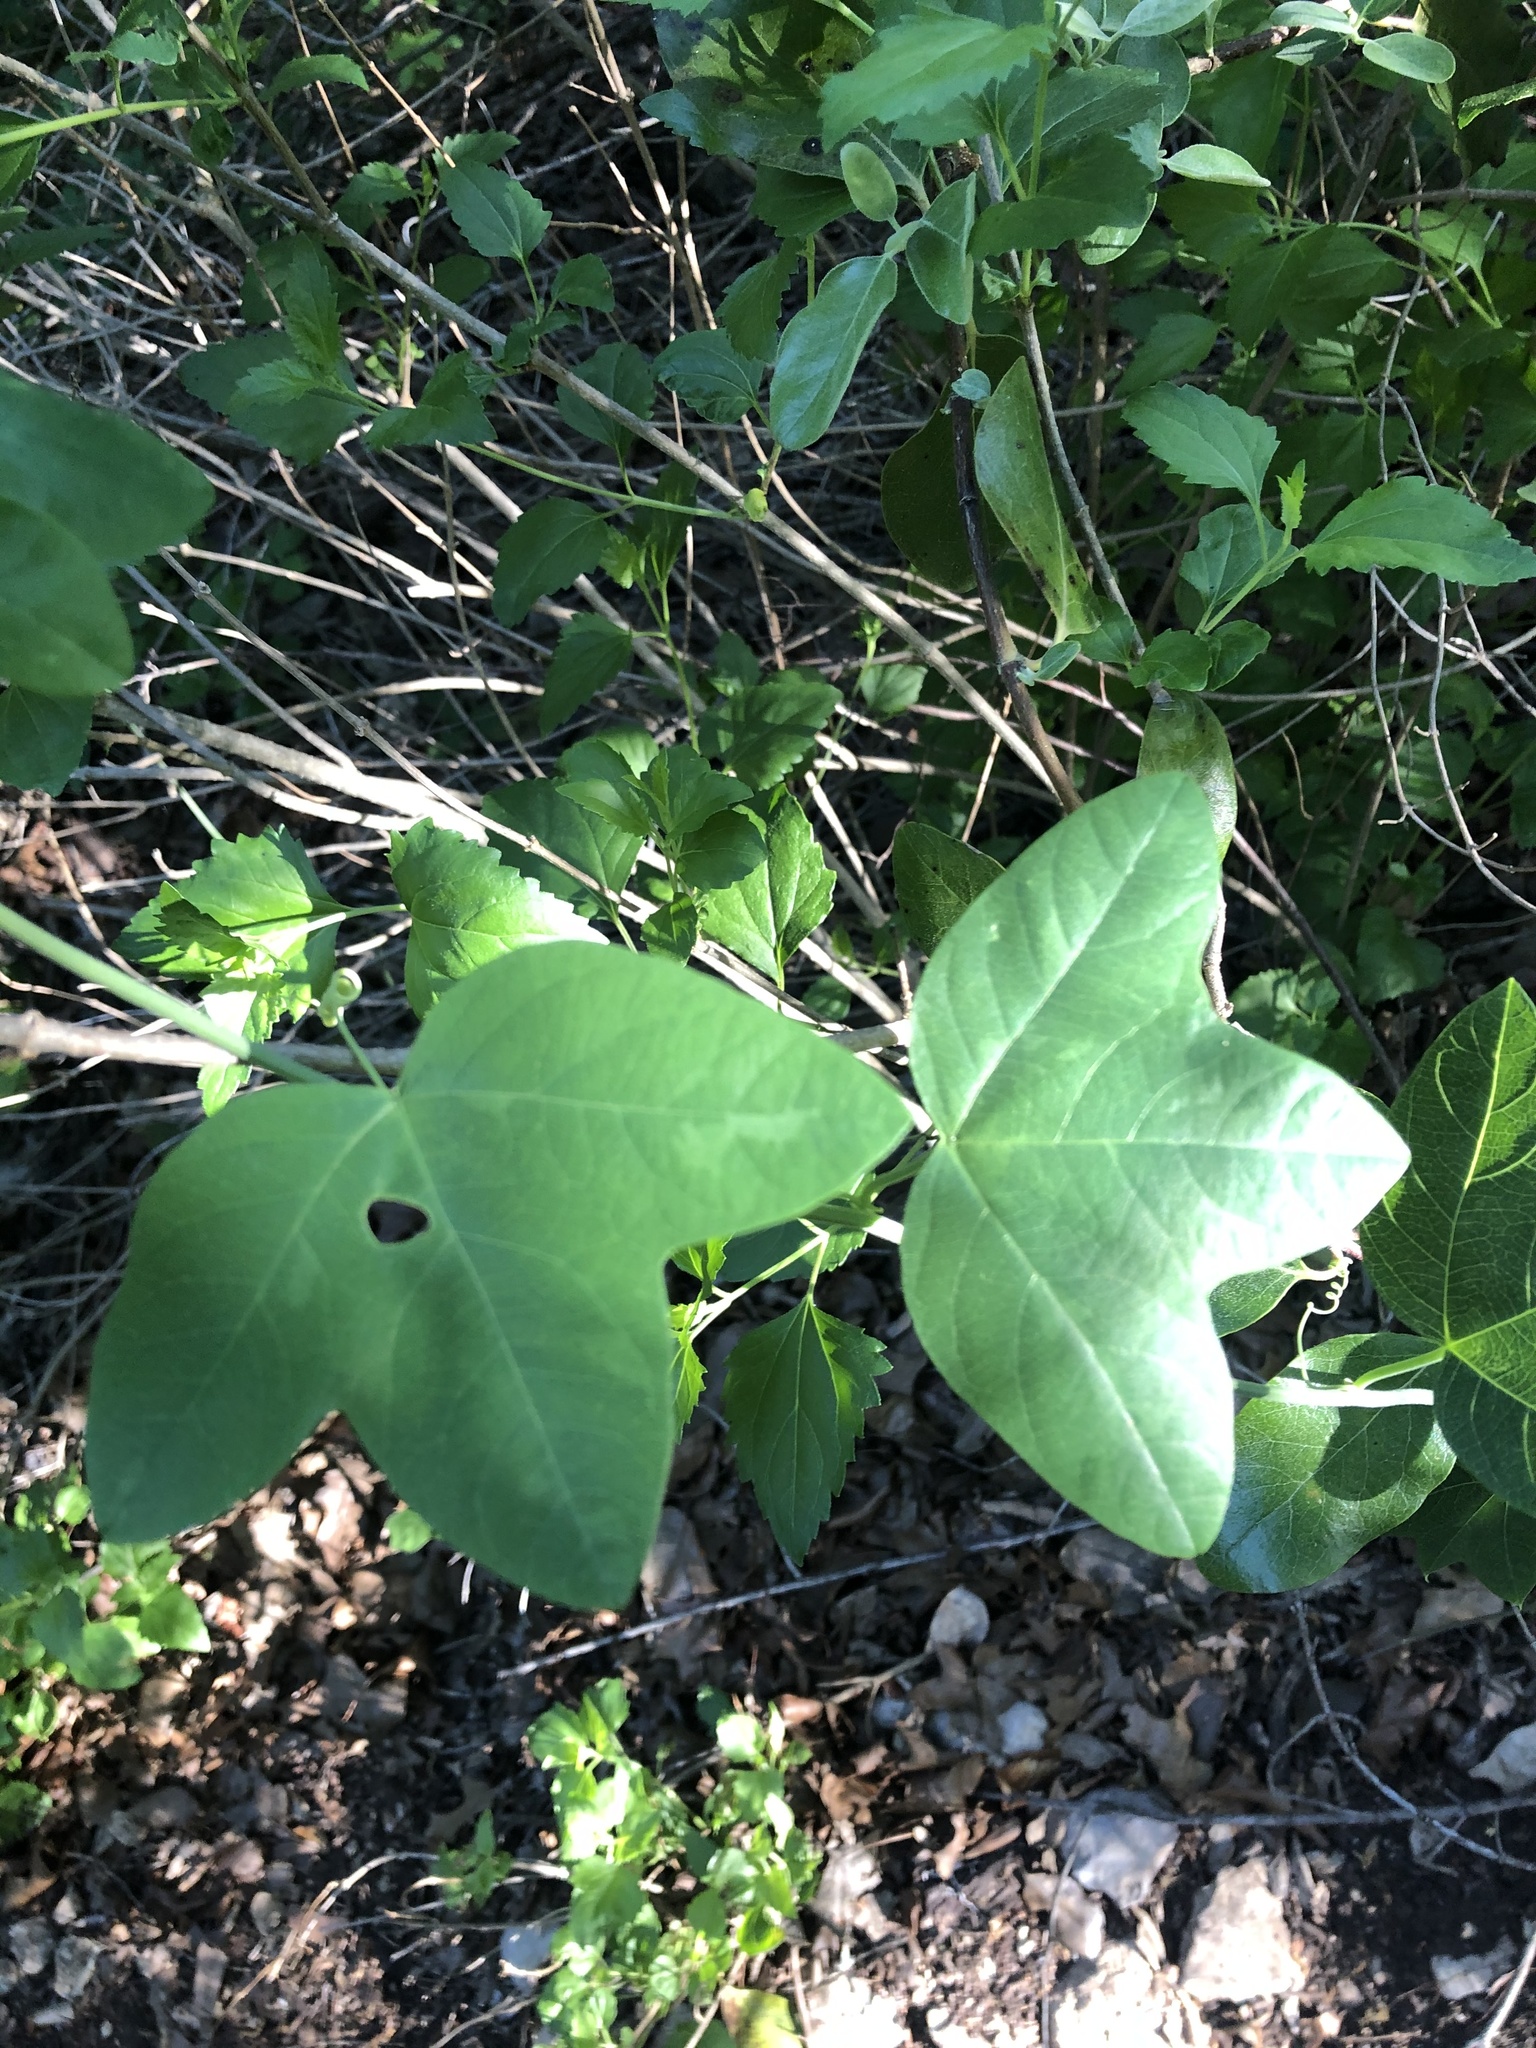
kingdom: Plantae
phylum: Tracheophyta
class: Magnoliopsida
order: Malpighiales
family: Passifloraceae
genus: Passiflora
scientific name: Passiflora lutea
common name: Yellow passionflower
